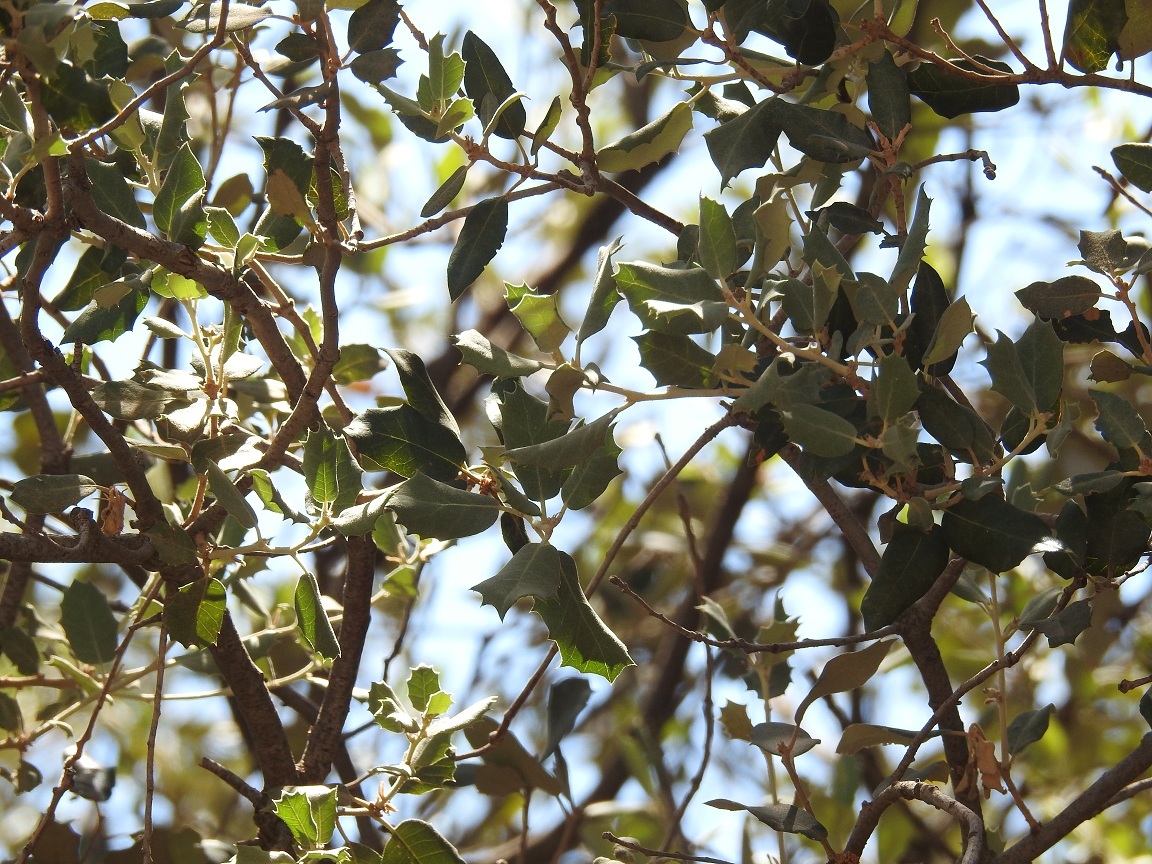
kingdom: Plantae
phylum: Tracheophyta
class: Magnoliopsida
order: Fagales
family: Fagaceae
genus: Quercus
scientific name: Quercus rotundifolia
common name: Holm oak
